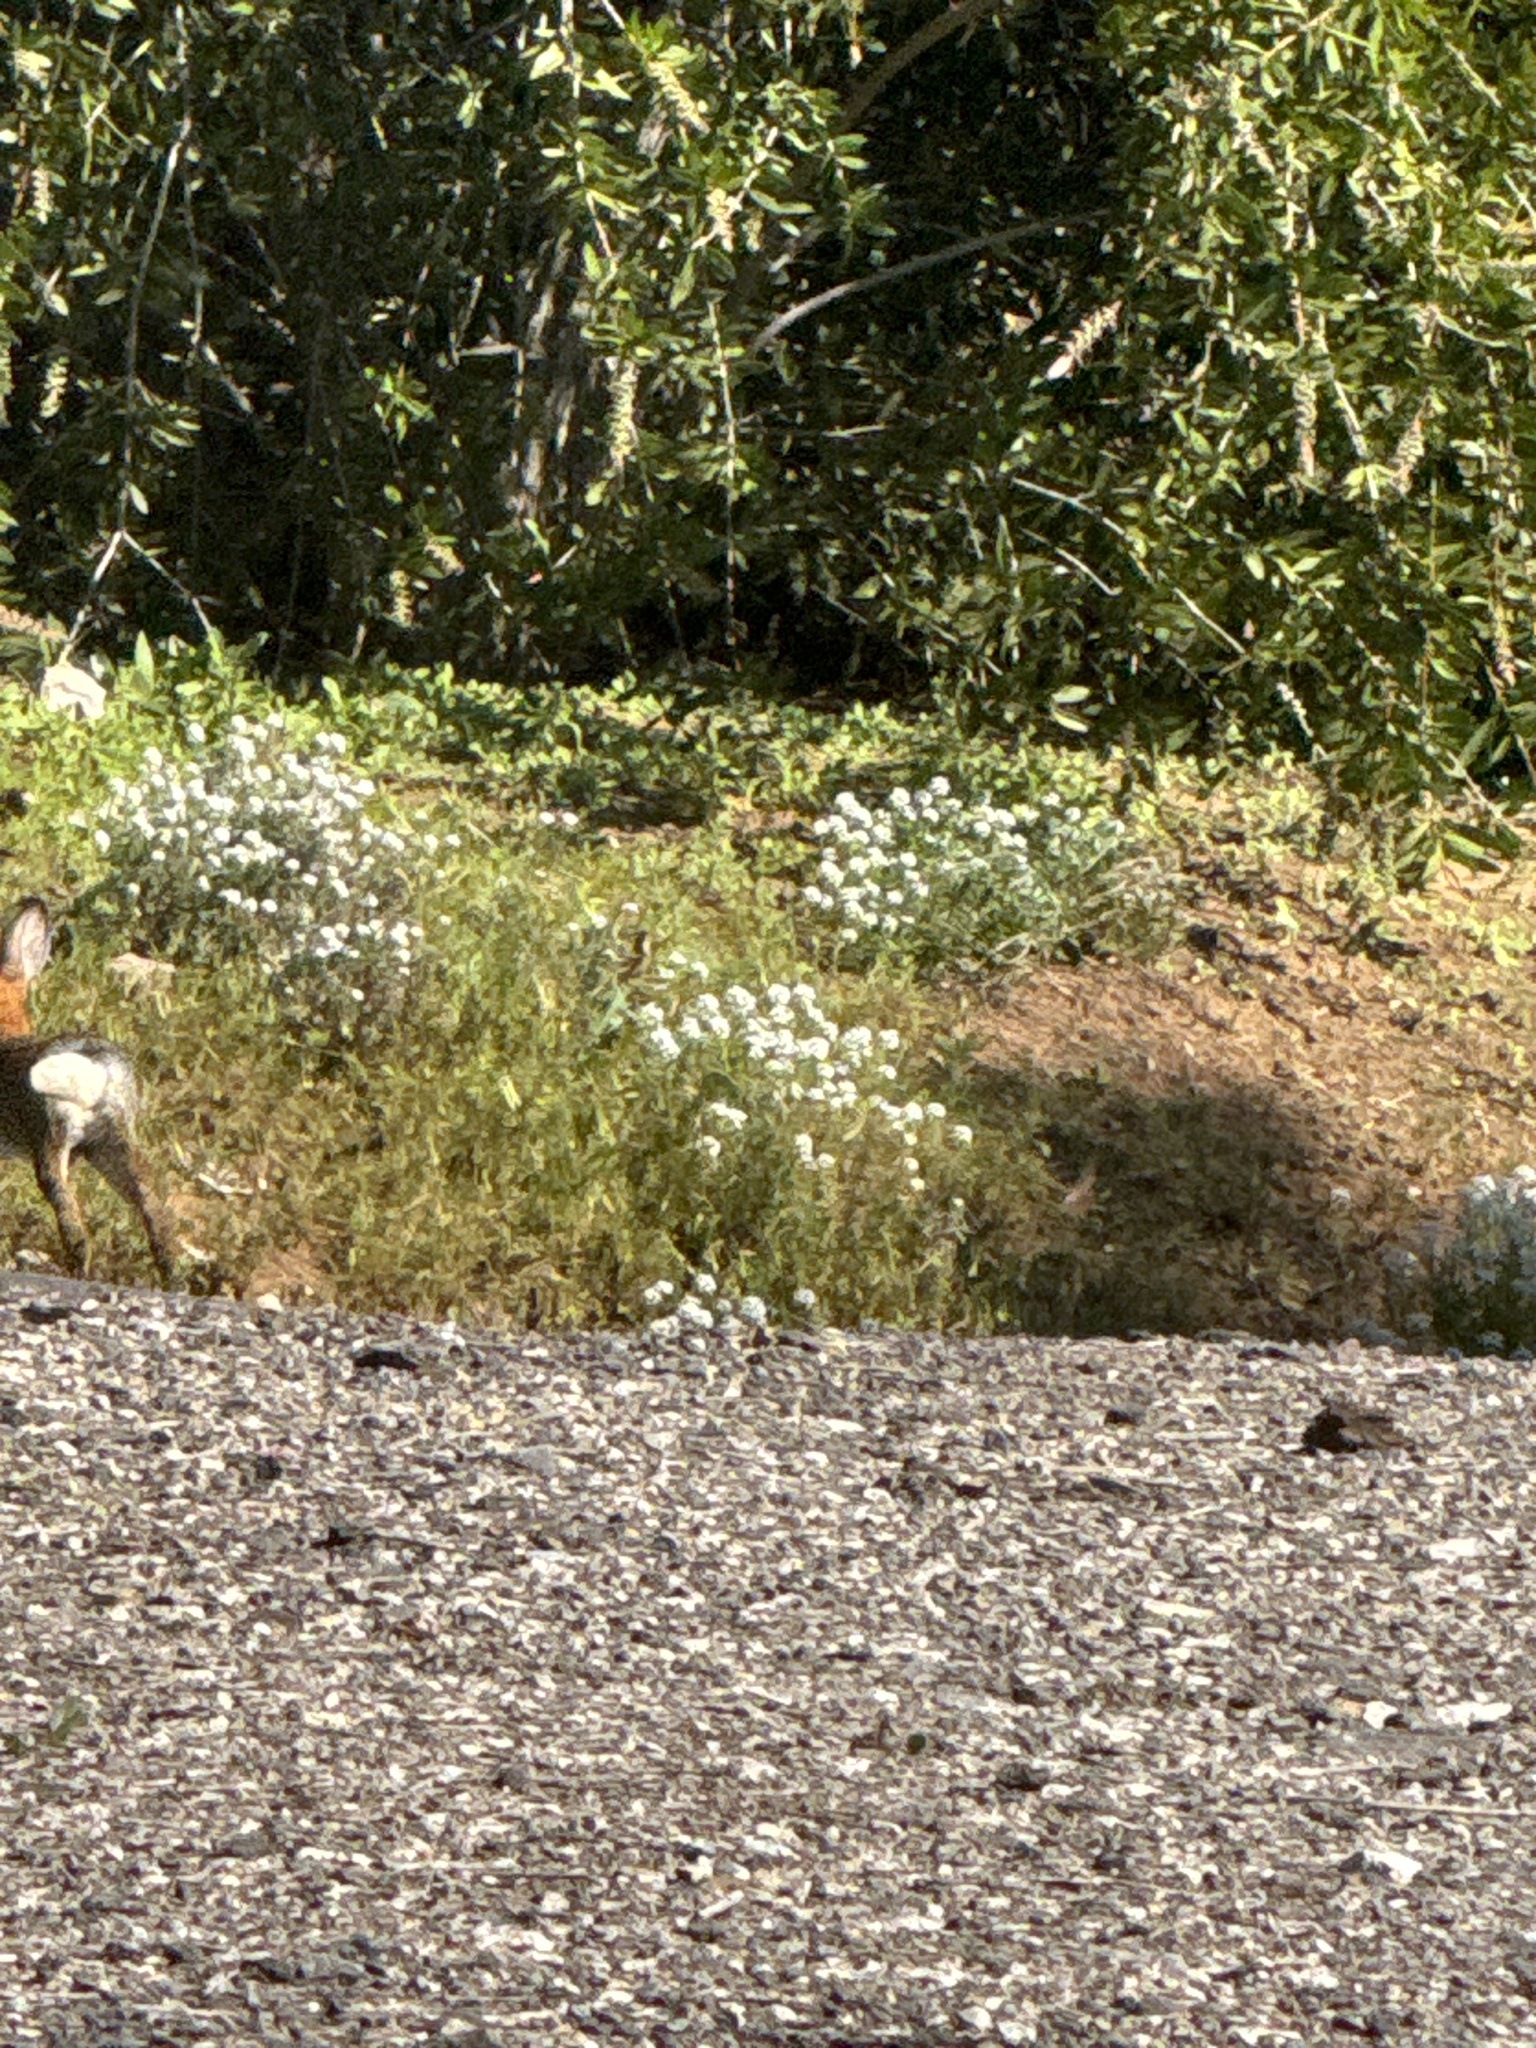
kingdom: Animalia
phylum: Chordata
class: Mammalia
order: Lagomorpha
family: Leporidae
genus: Sylvilagus
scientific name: Sylvilagus audubonii
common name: Desert cottontail
